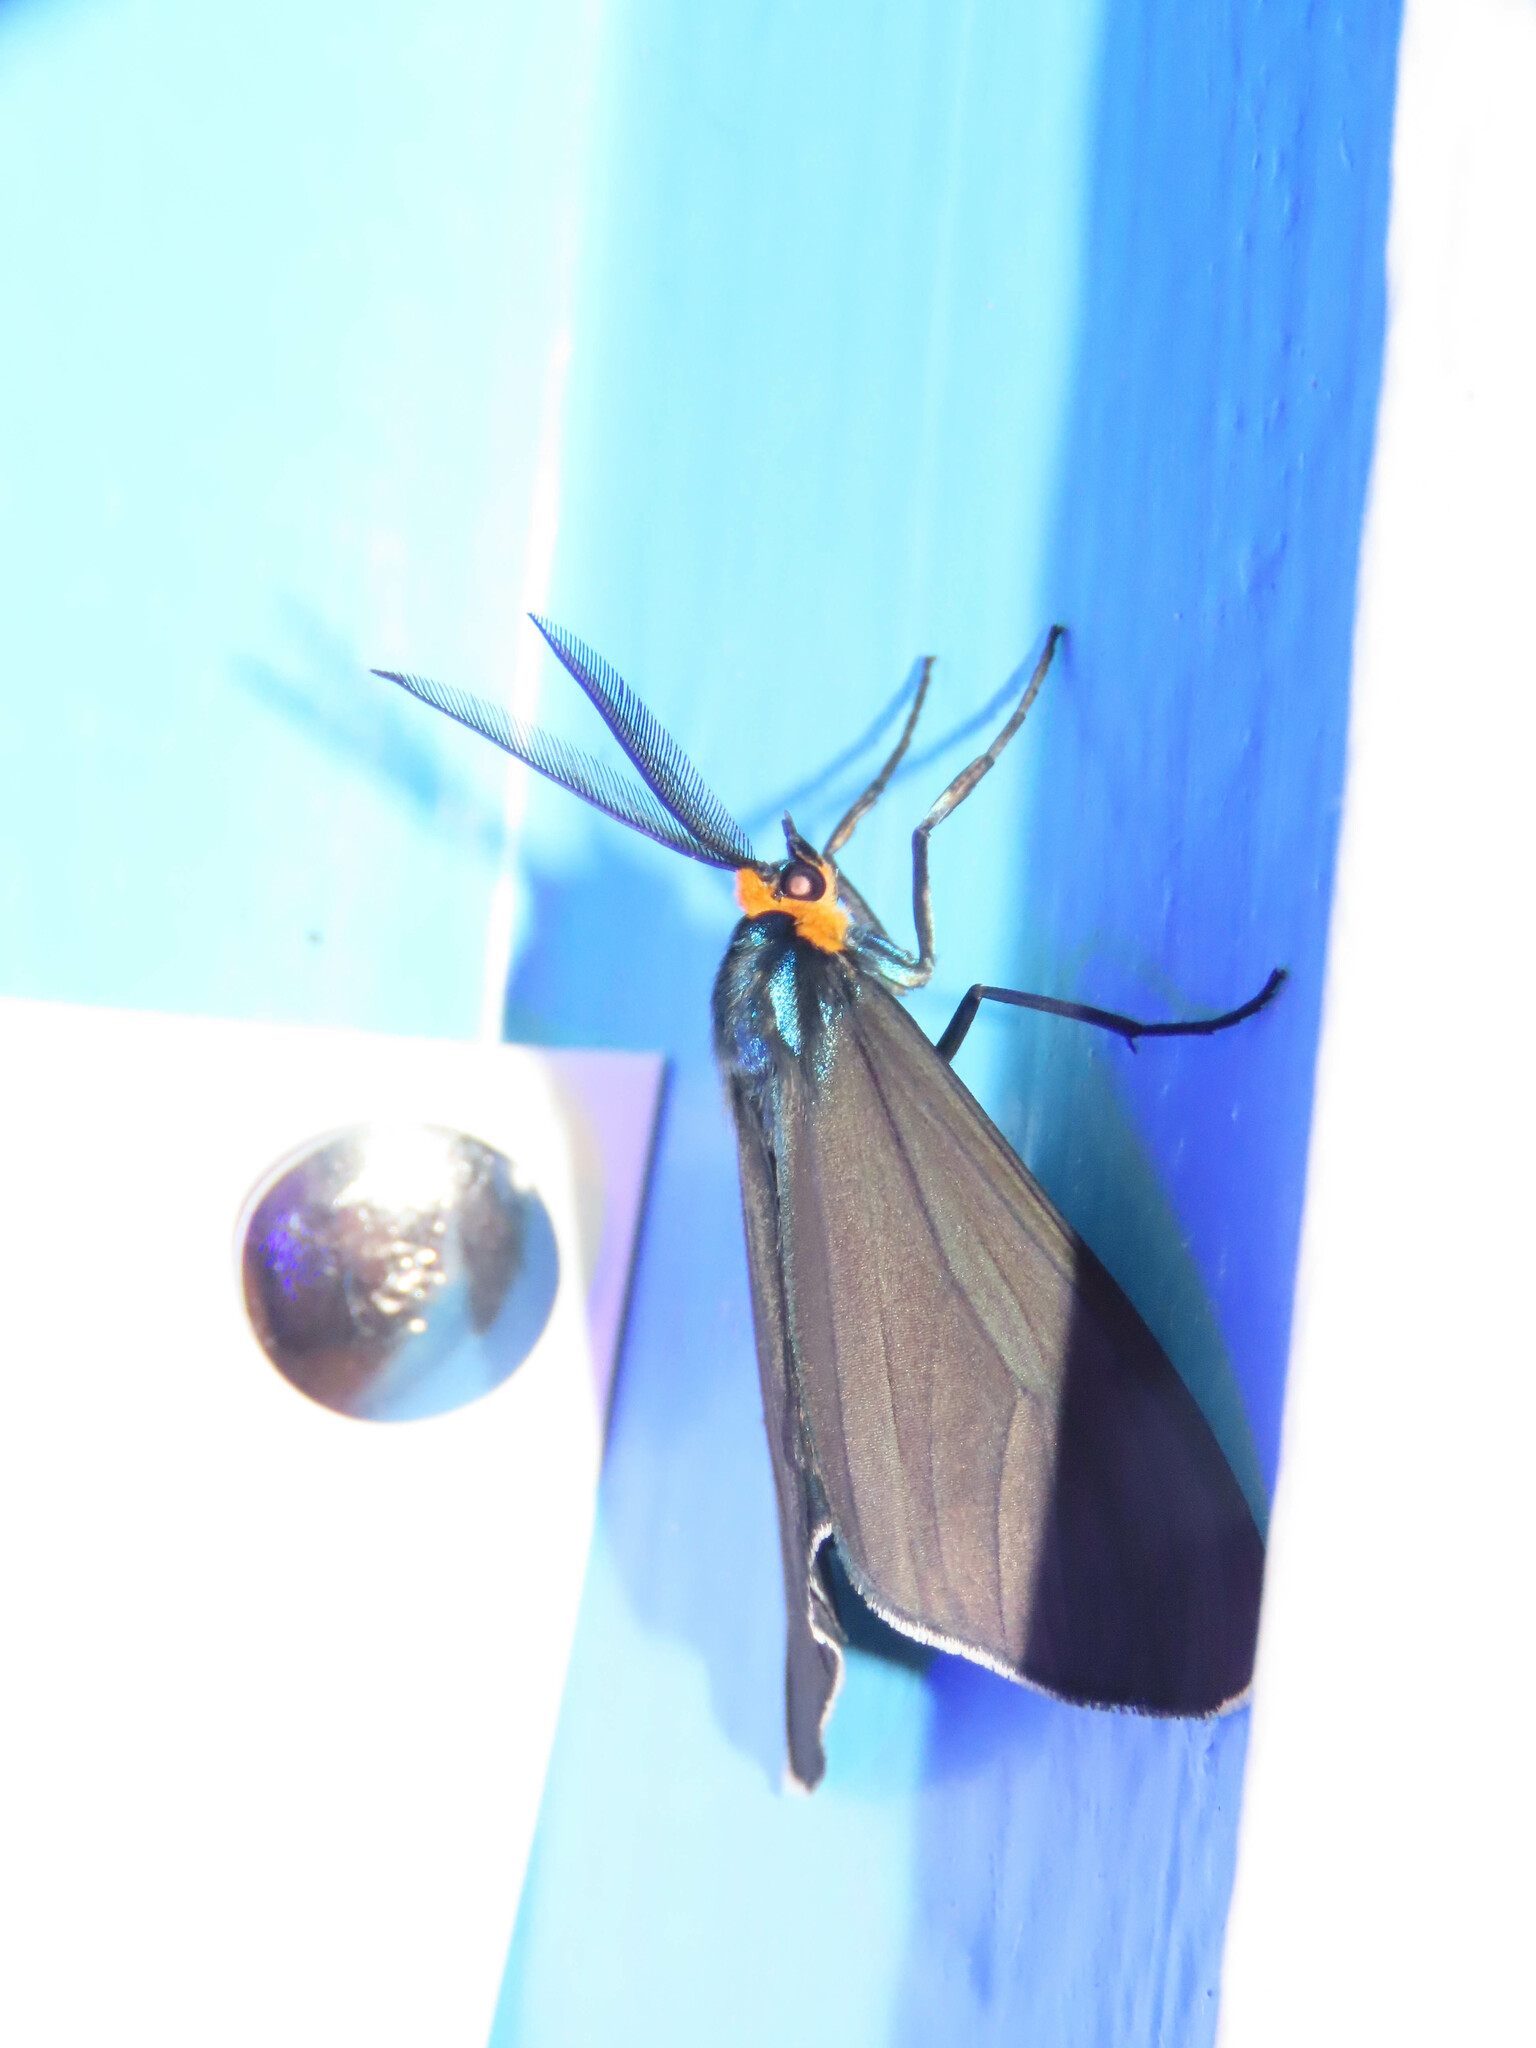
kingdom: Animalia
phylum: Arthropoda
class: Insecta
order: Lepidoptera
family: Erebidae
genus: Ctenucha
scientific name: Ctenucha virginica
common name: Virginia ctenucha moth
